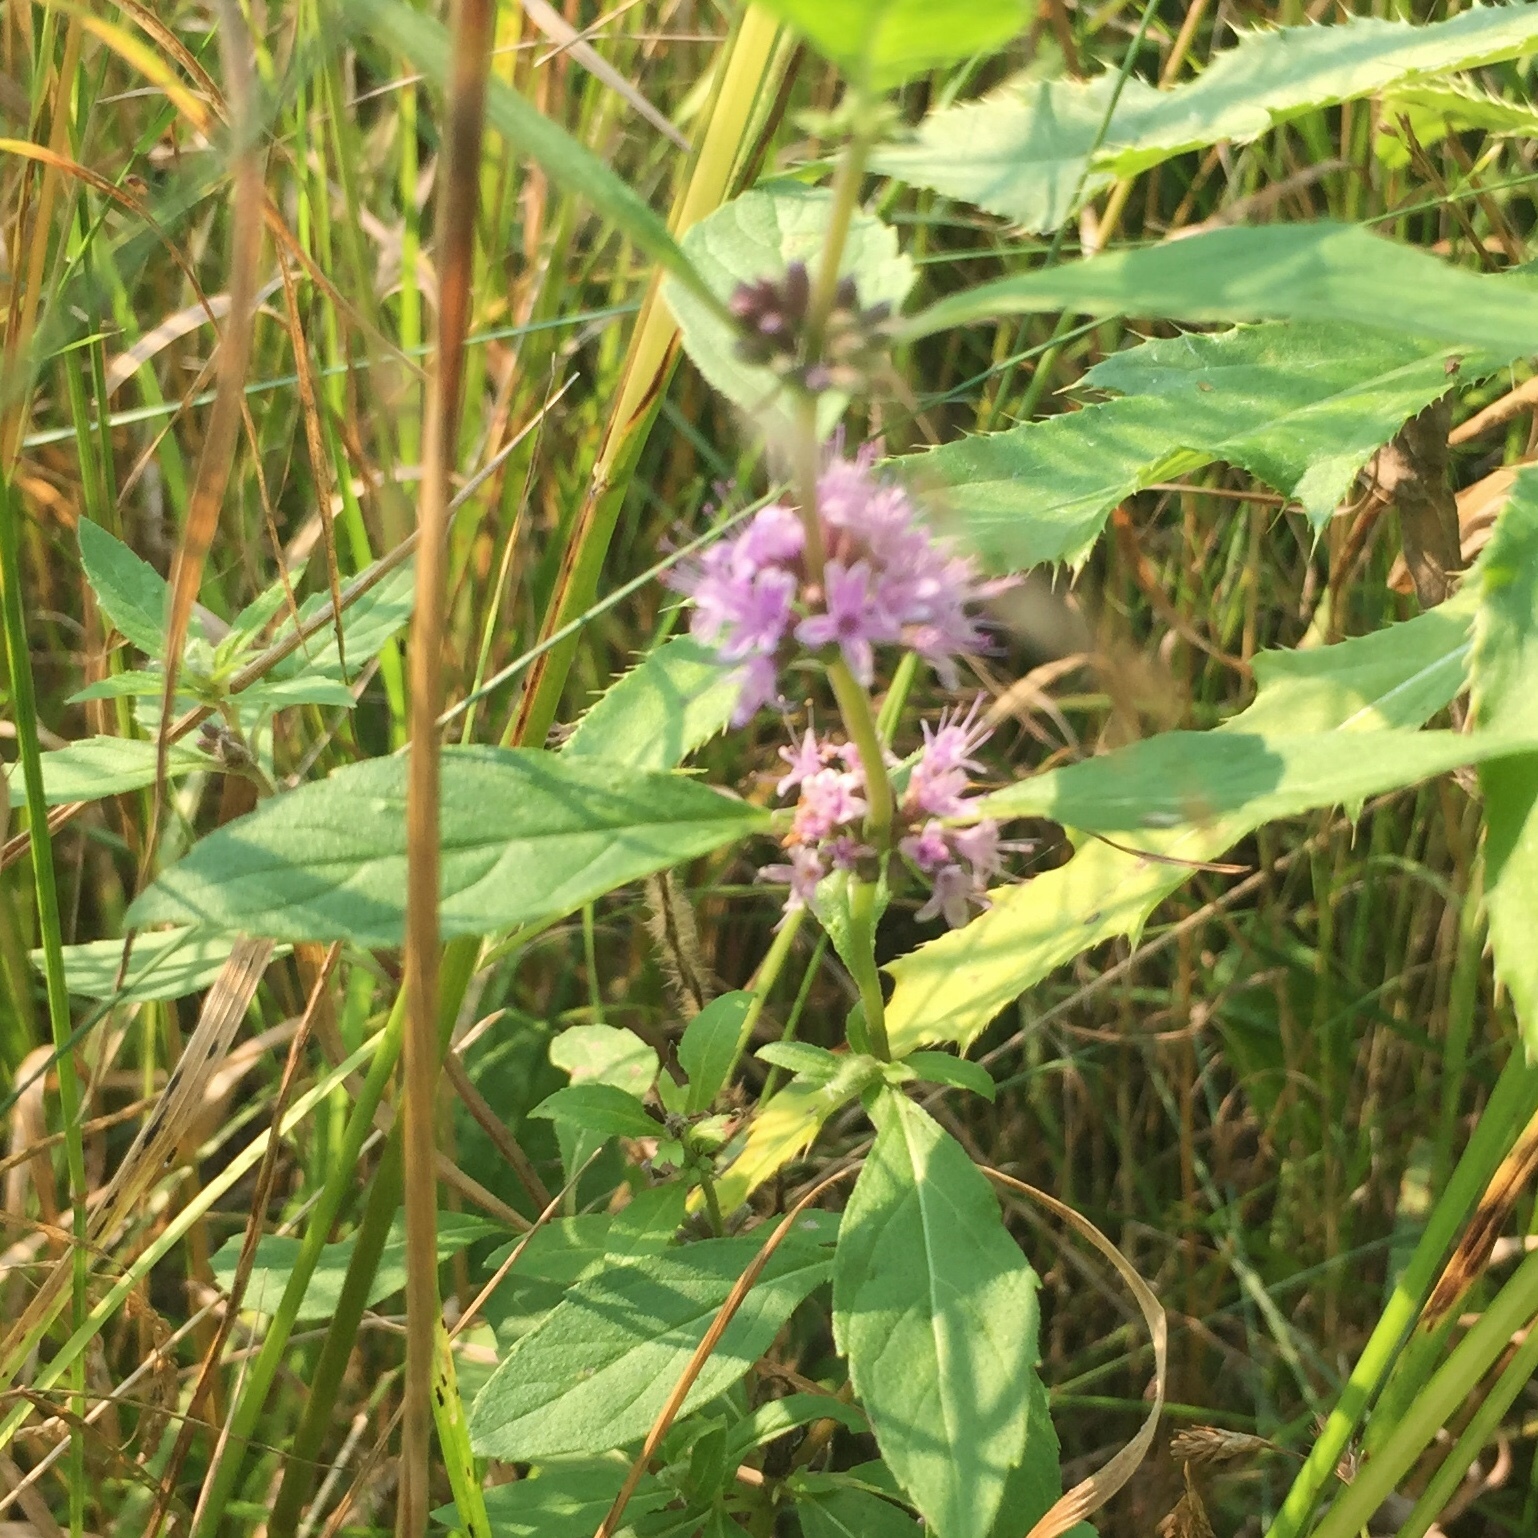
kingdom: Plantae
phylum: Tracheophyta
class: Magnoliopsida
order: Lamiales
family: Lamiaceae
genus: Mentha
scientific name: Mentha canadensis
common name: American corn mint
